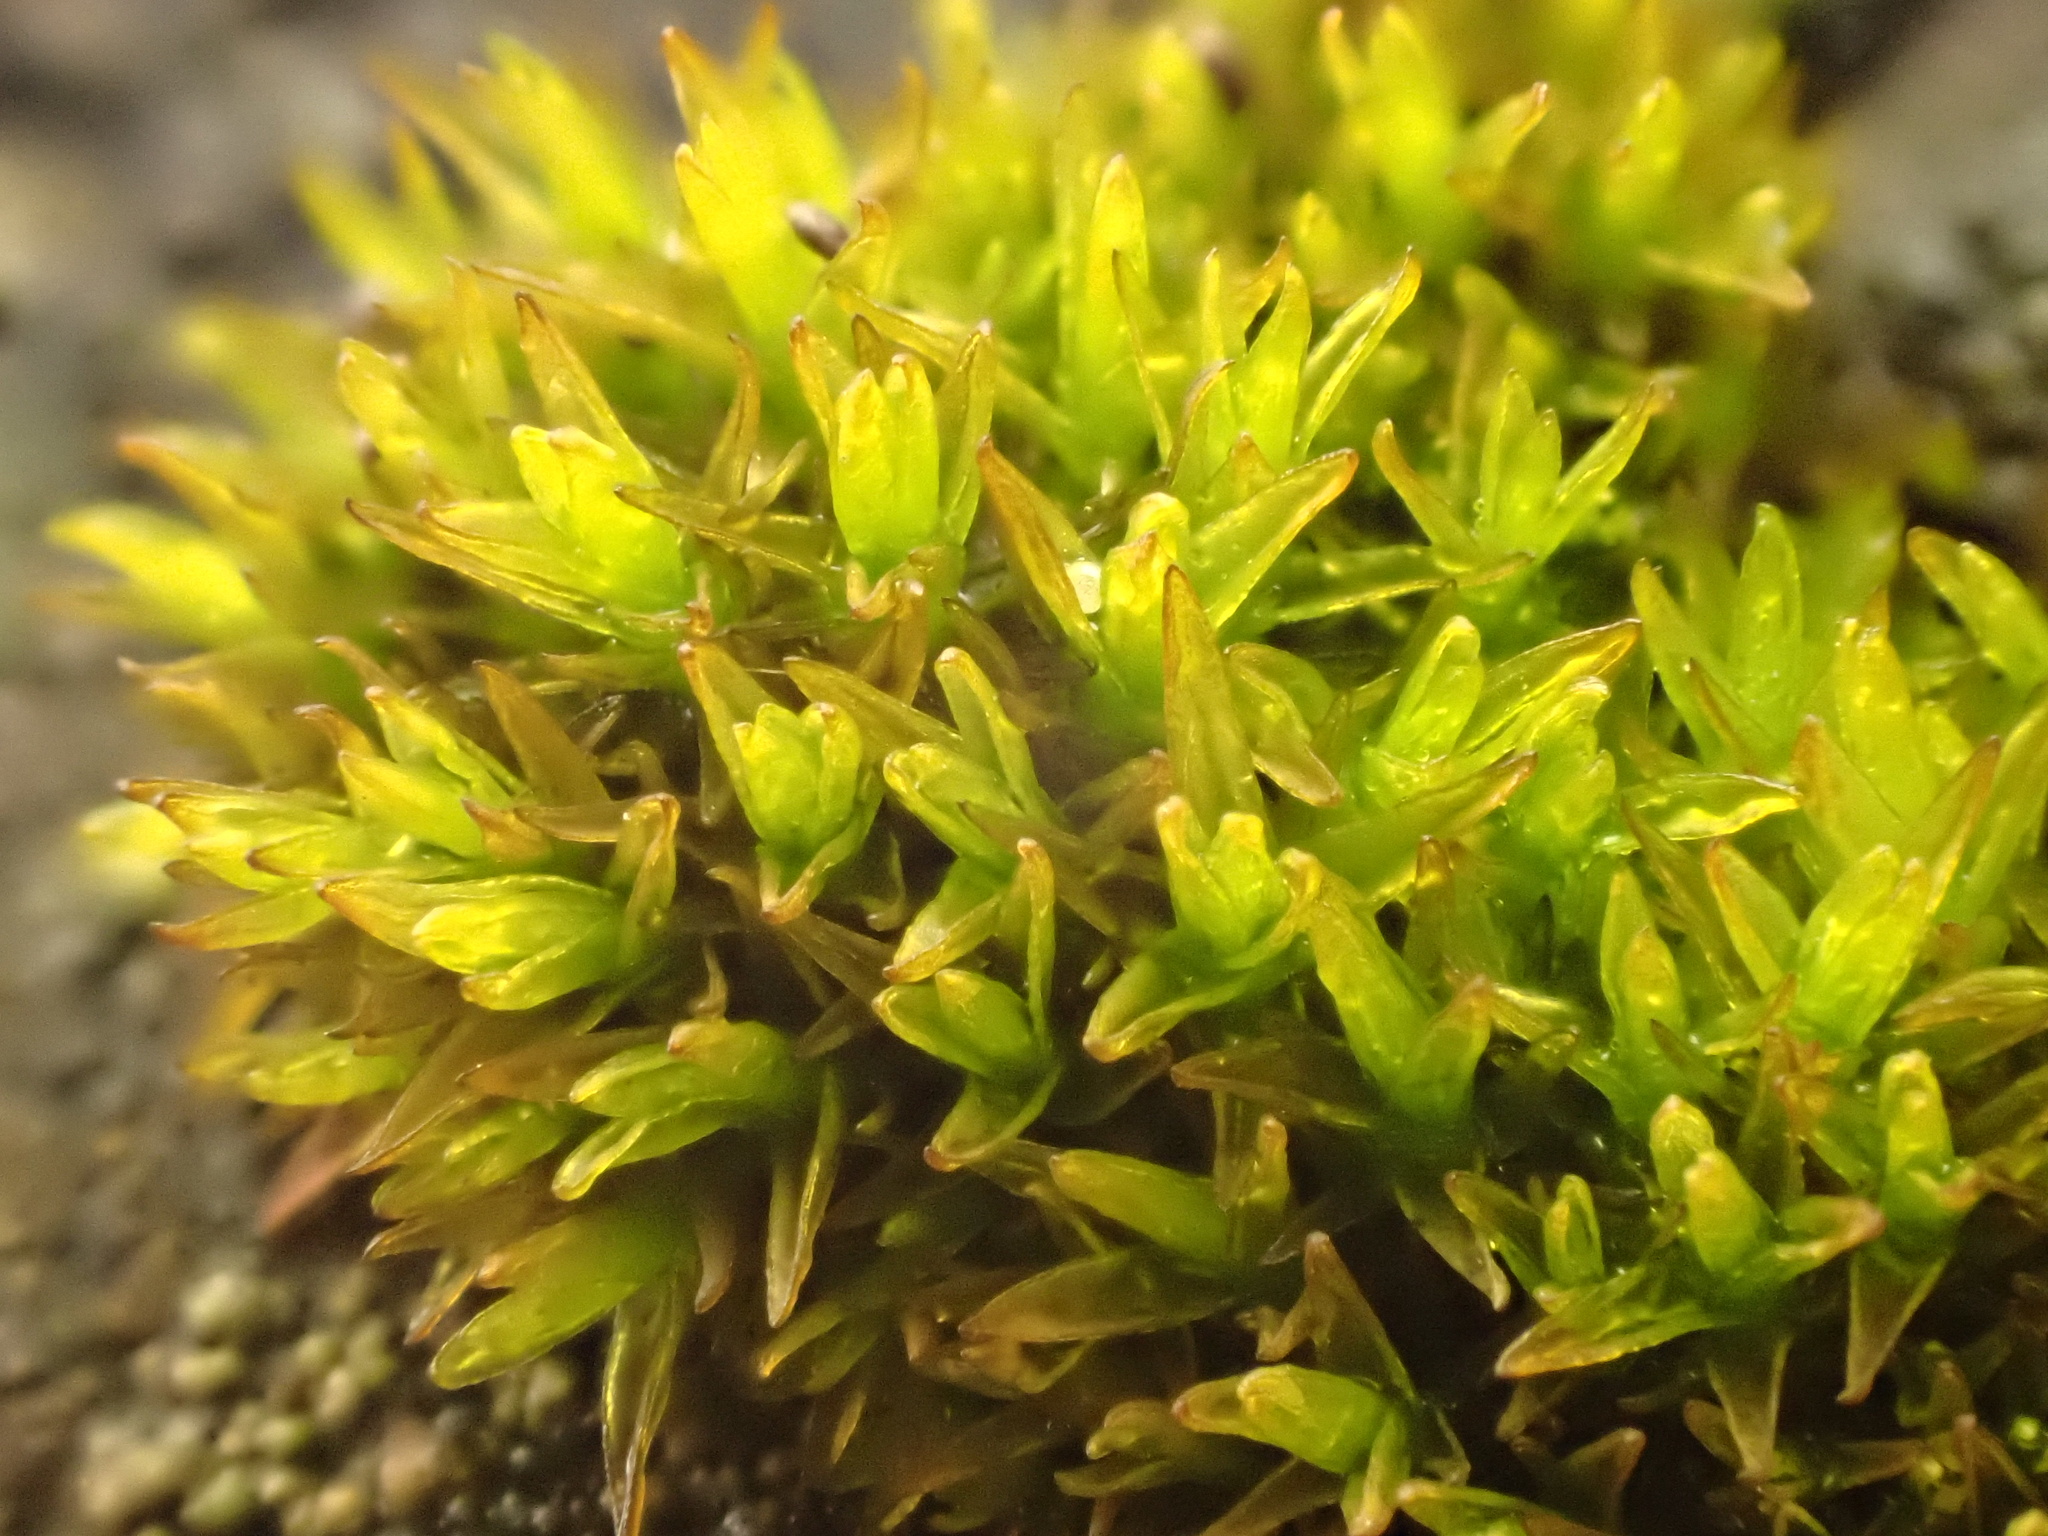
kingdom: Plantae
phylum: Bryophyta
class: Bryopsida
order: Orthotrichales
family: Orthotrichaceae
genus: Orthotrichum
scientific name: Orthotrichum anomalum
